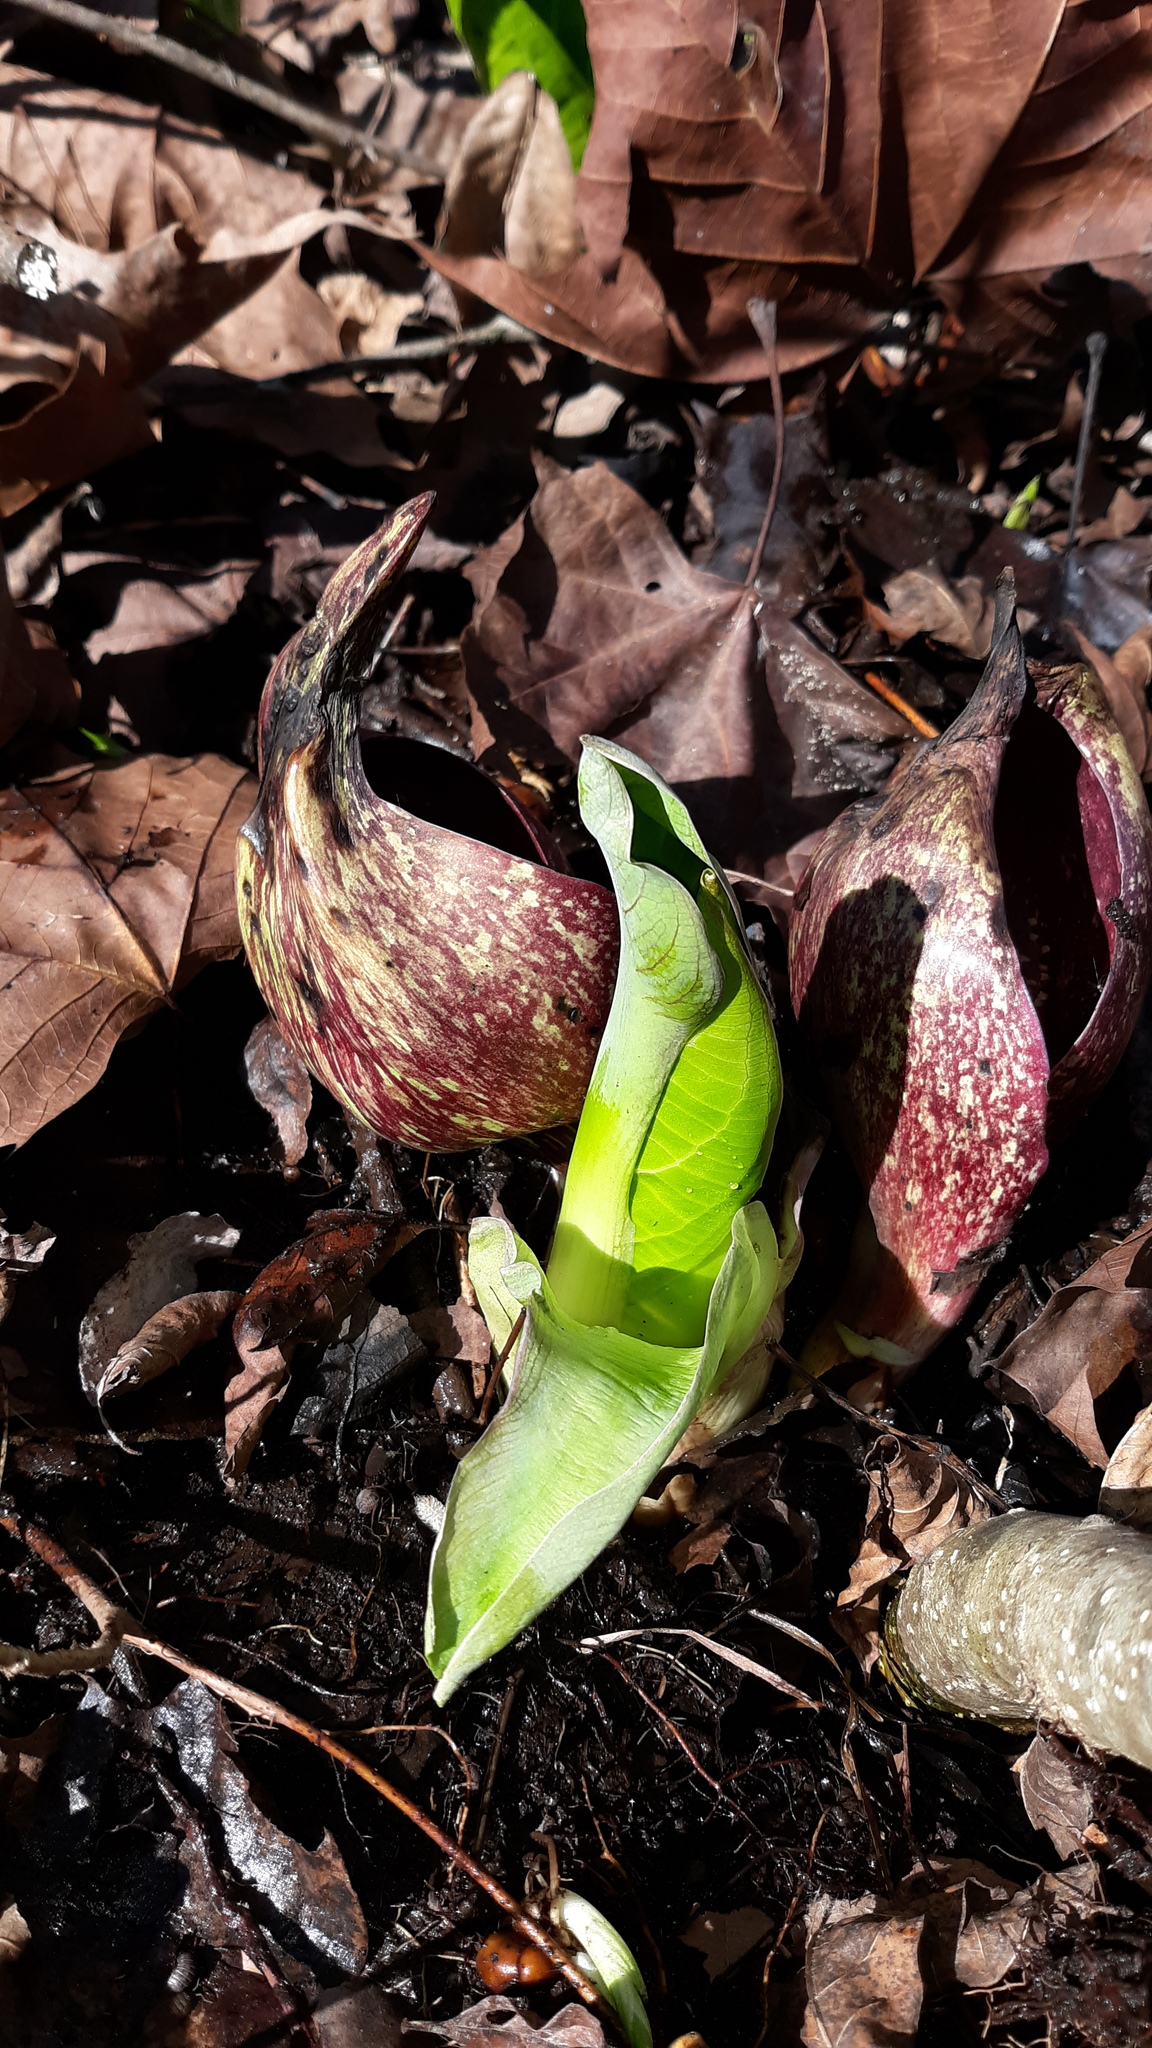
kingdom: Plantae
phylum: Tracheophyta
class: Liliopsida
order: Alismatales
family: Araceae
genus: Symplocarpus
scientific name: Symplocarpus foetidus
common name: Eastern skunk cabbage
